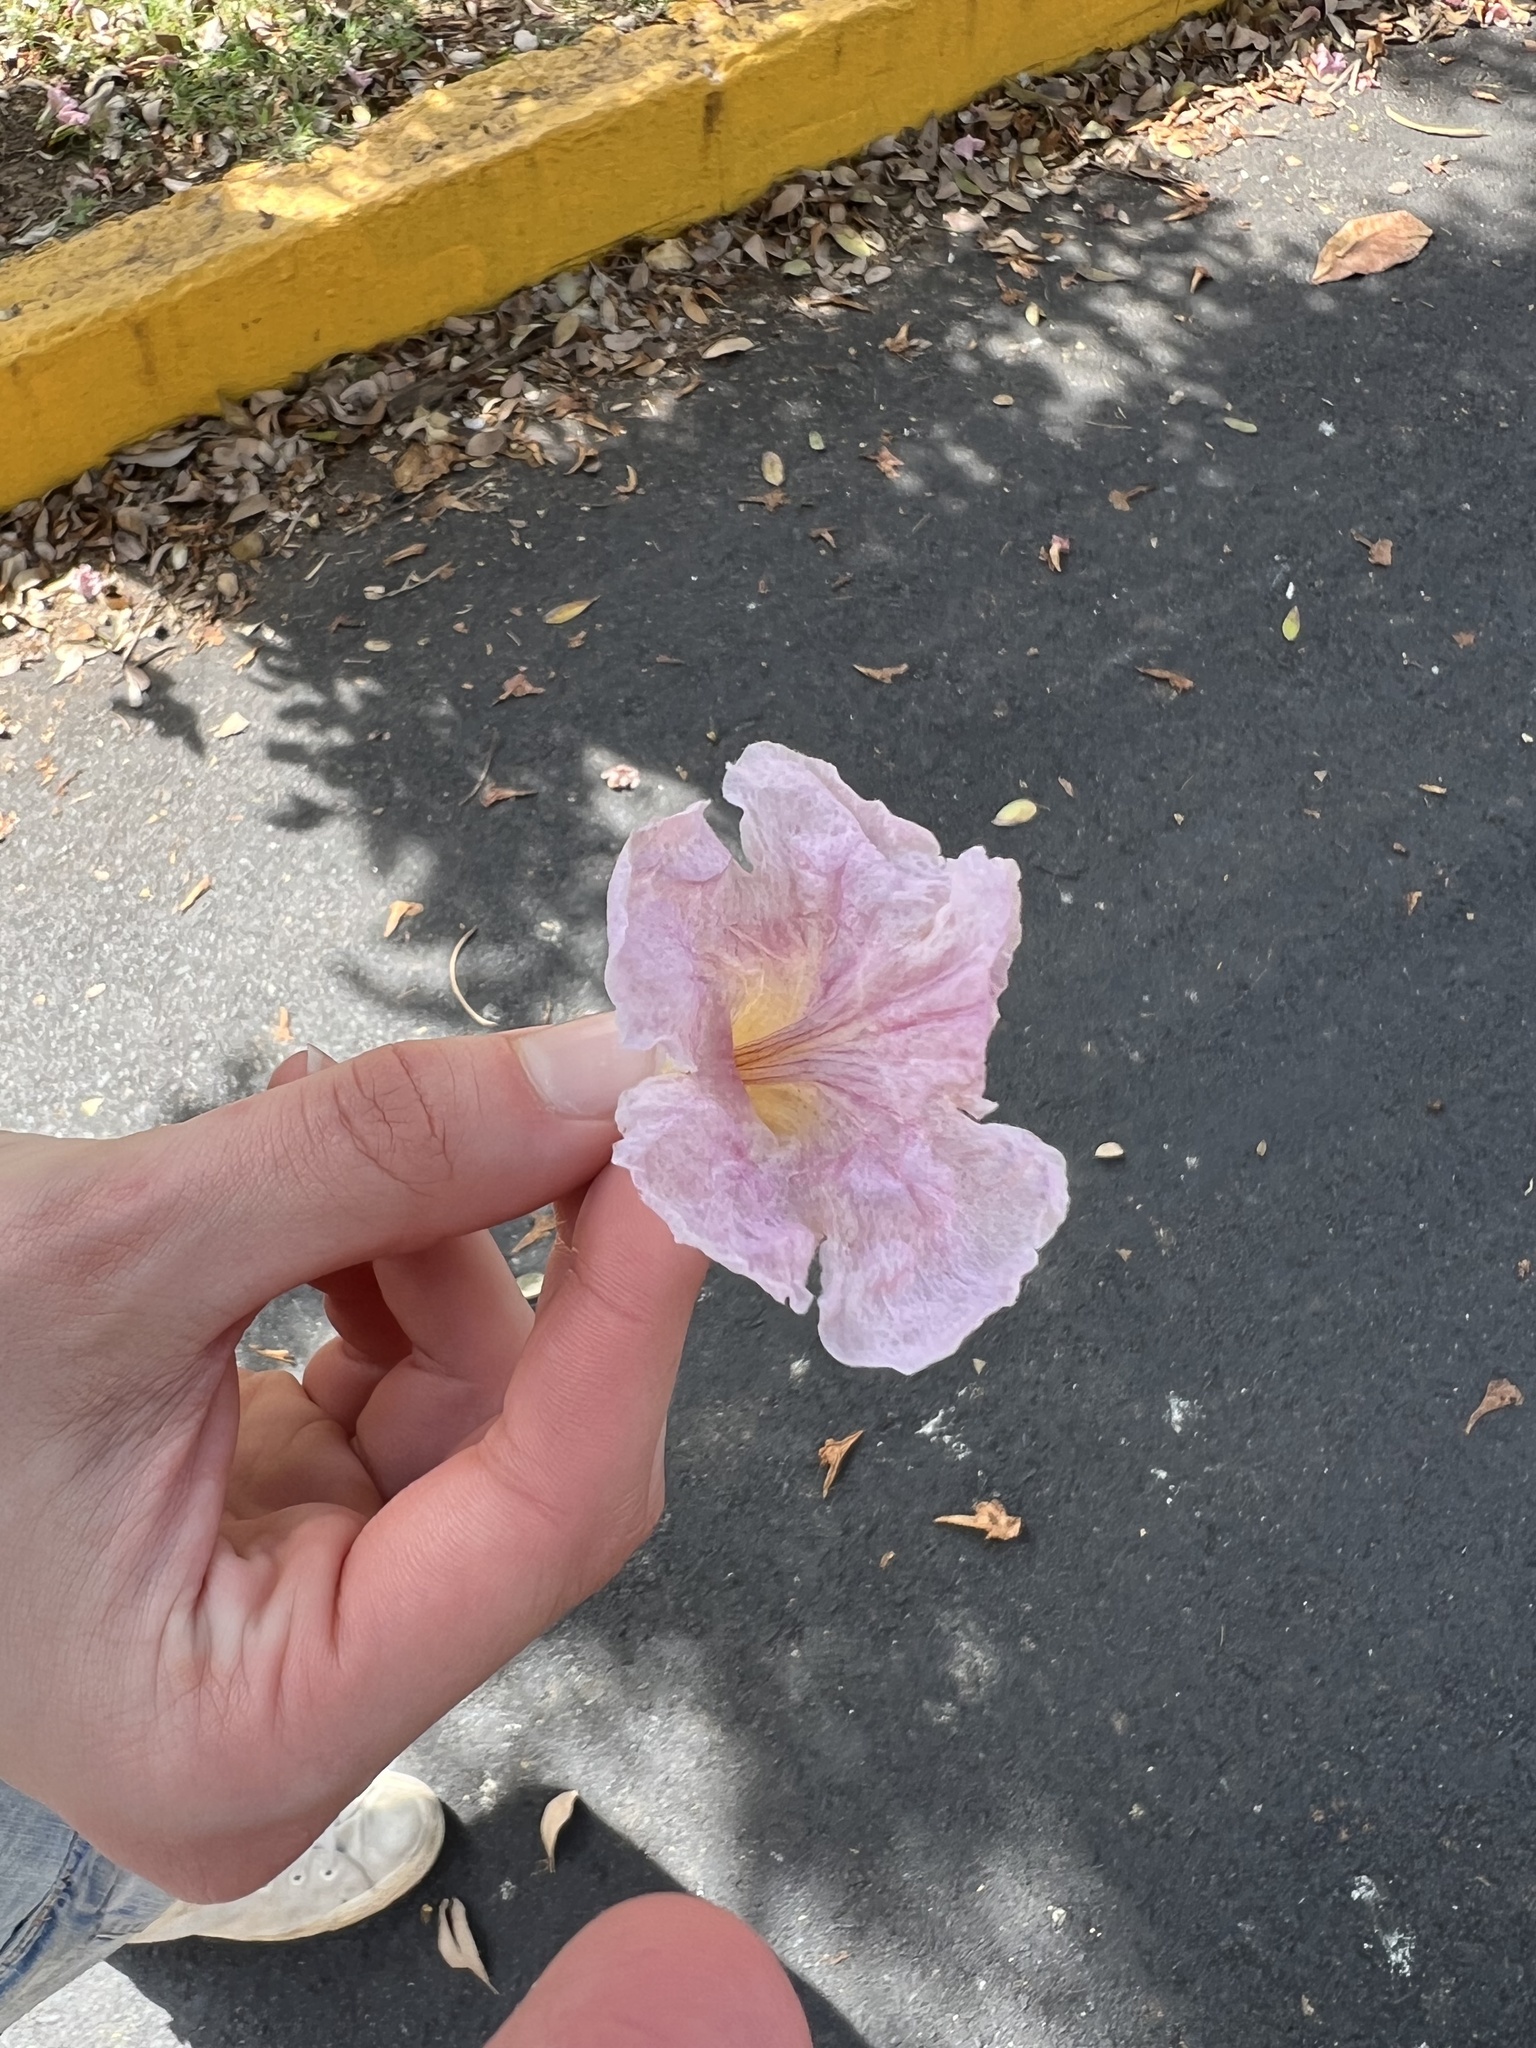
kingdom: Plantae
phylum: Tracheophyta
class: Magnoliopsida
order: Lamiales
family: Bignoniaceae
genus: Tabebuia
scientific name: Tabebuia heterophylla
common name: White cedar
